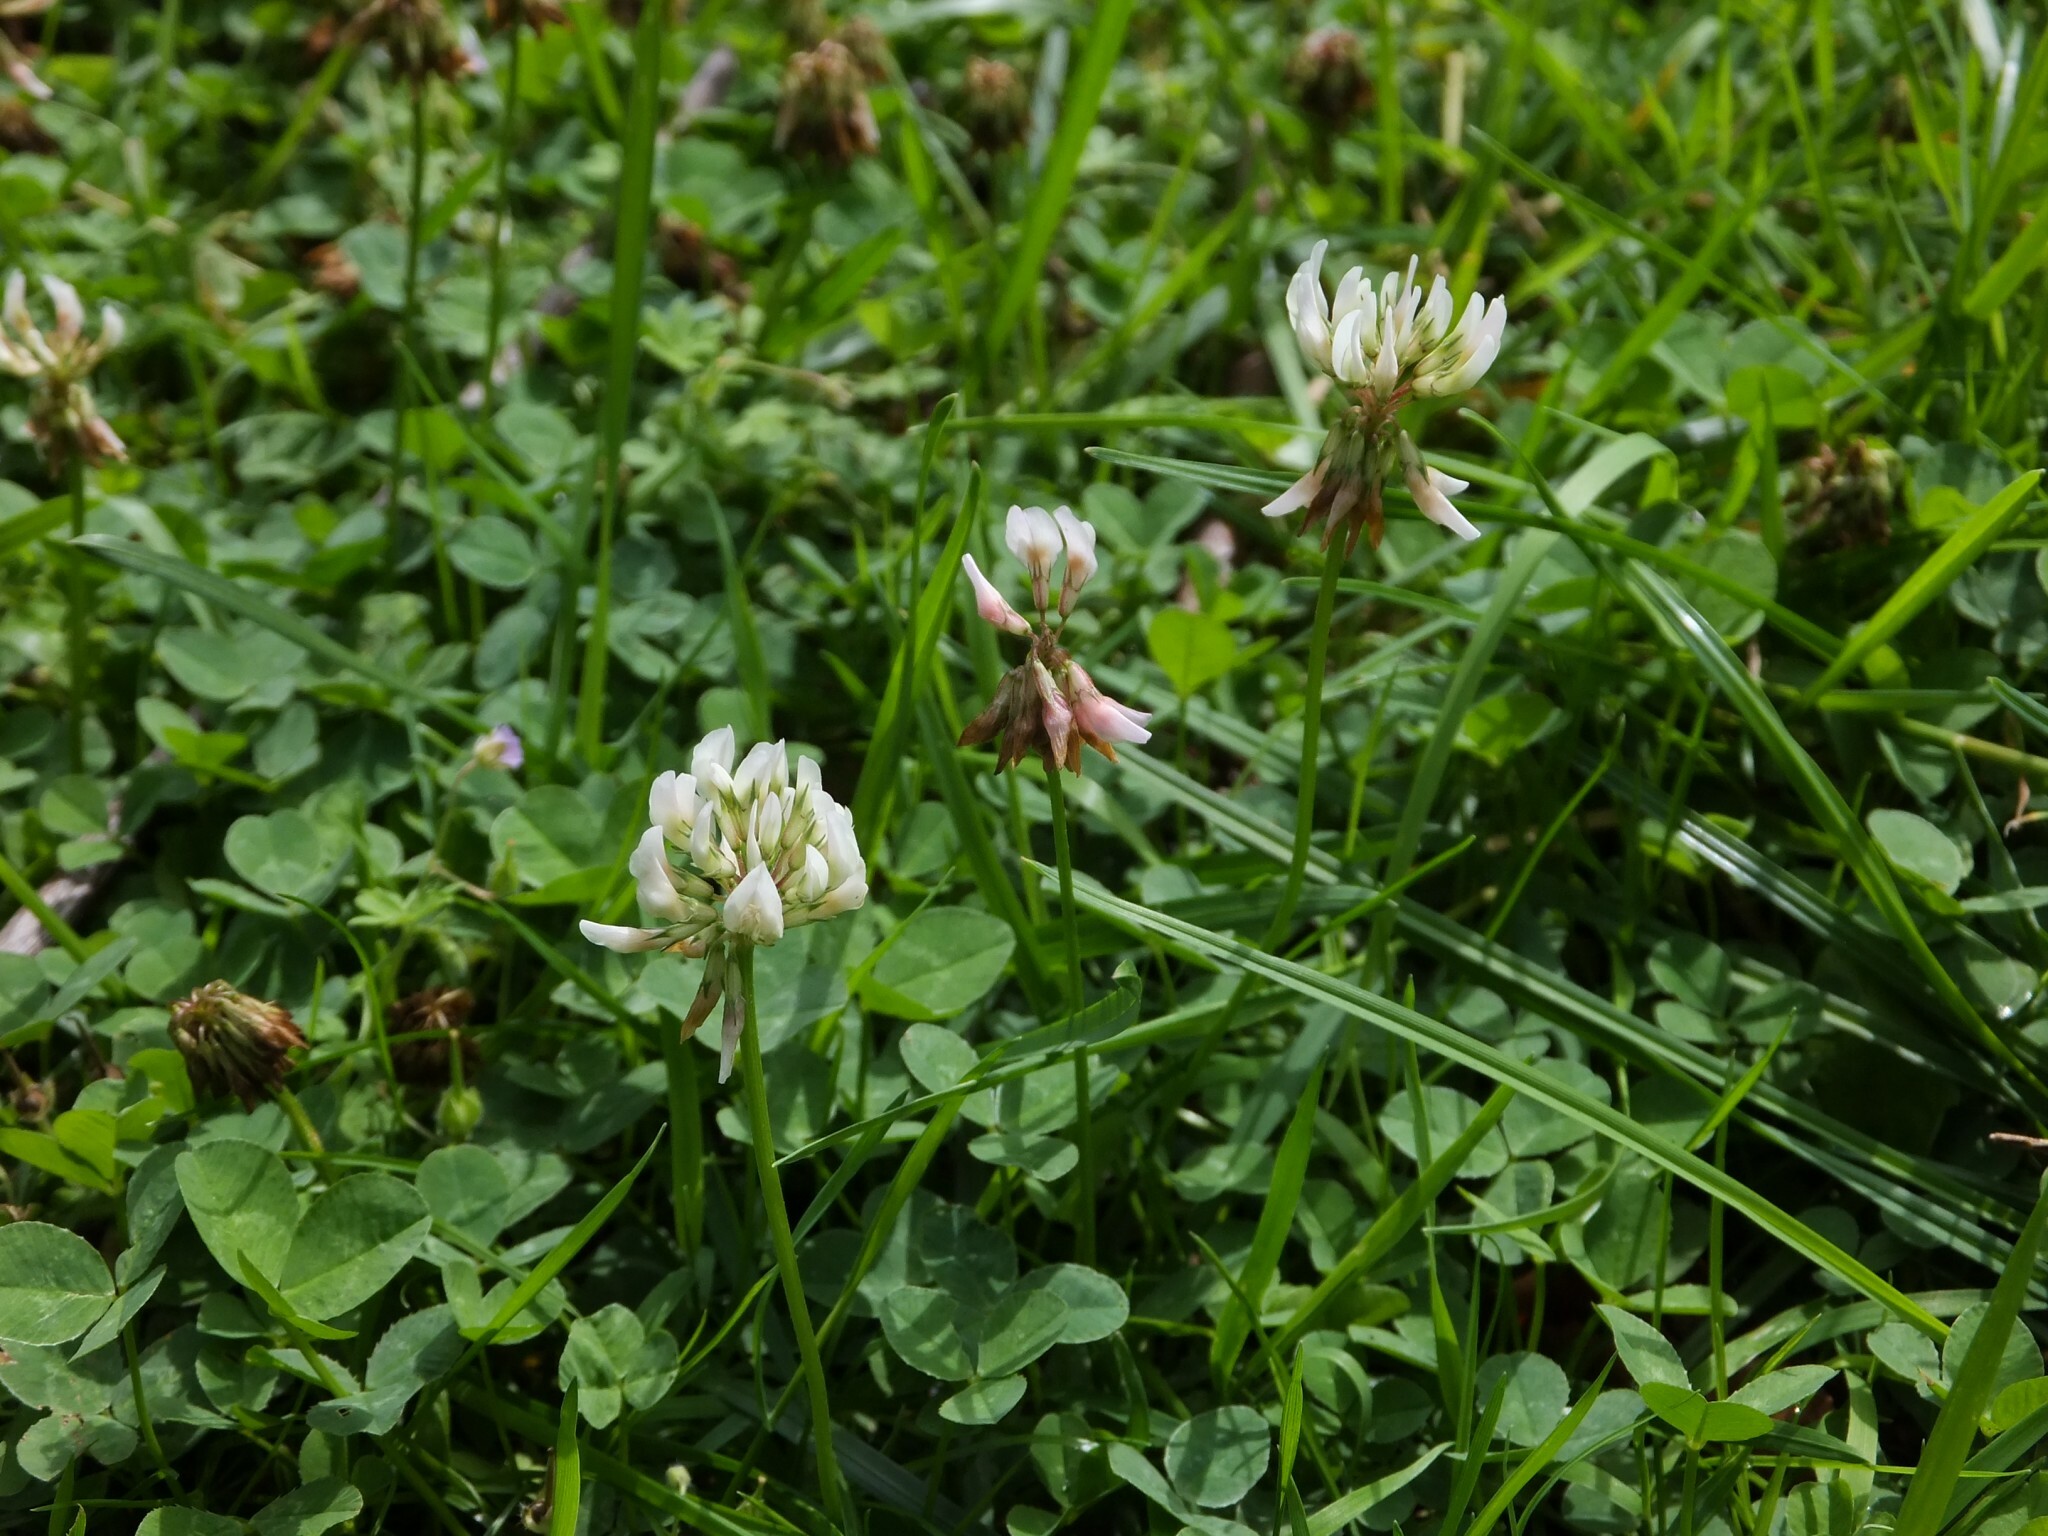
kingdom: Plantae
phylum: Tracheophyta
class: Magnoliopsida
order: Fabales
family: Fabaceae
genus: Trifolium
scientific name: Trifolium repens
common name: White clover
